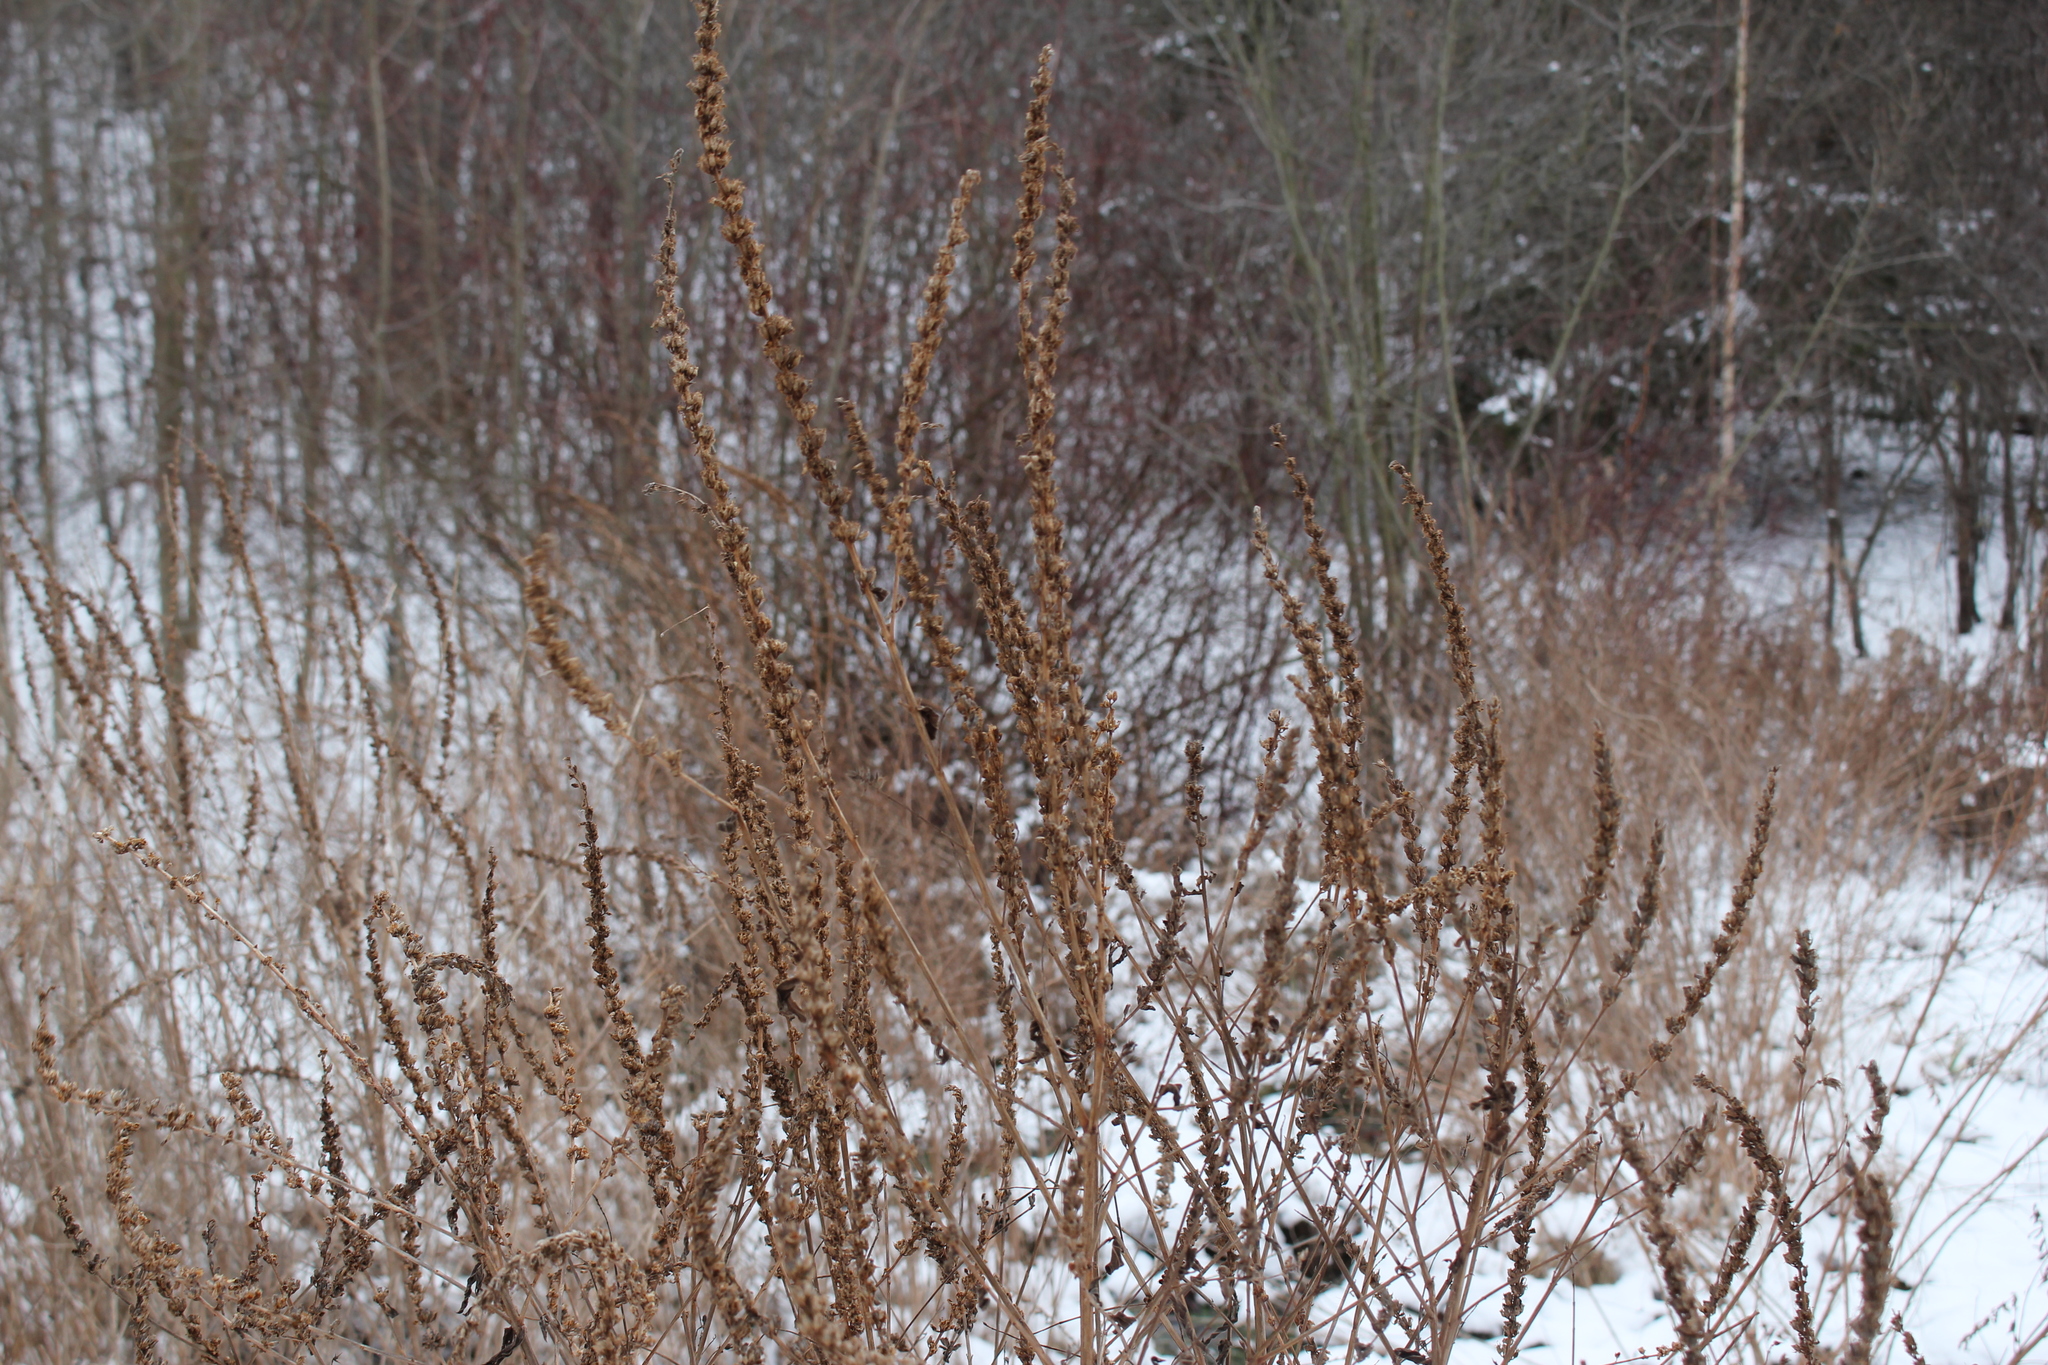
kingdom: Plantae
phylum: Tracheophyta
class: Magnoliopsida
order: Myrtales
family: Lythraceae
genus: Lythrum
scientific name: Lythrum salicaria
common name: Purple loosestrife
